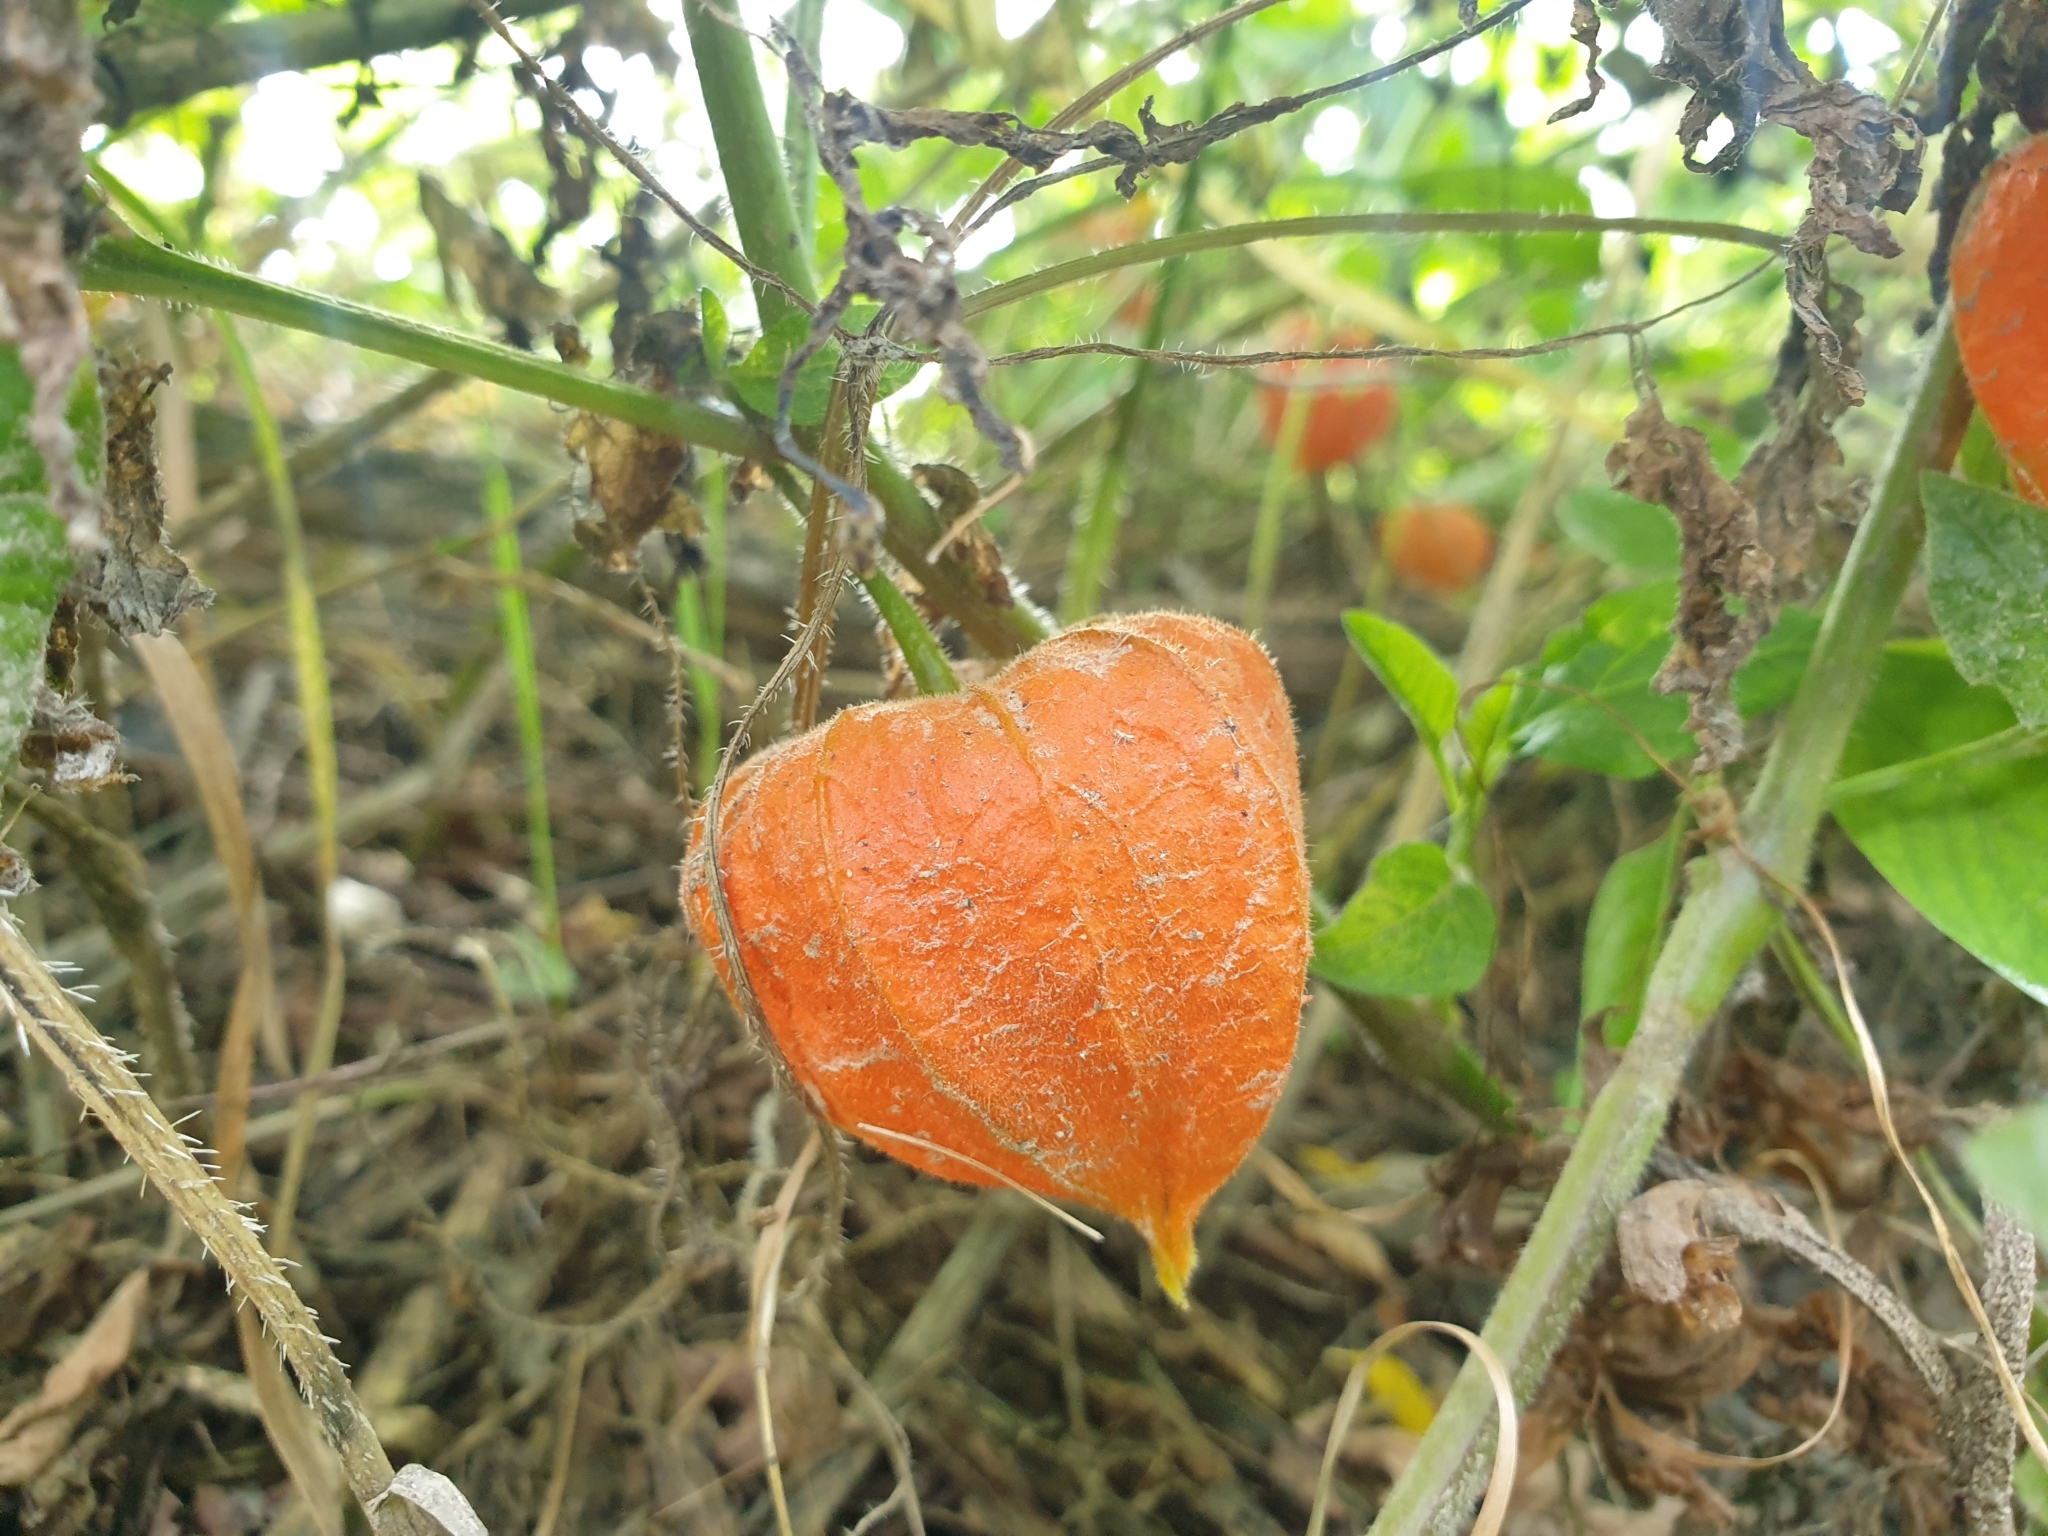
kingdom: Plantae
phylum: Tracheophyta
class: Magnoliopsida
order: Solanales
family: Solanaceae
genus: Alkekengi
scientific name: Alkekengi officinarum
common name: Japanese-lantern
